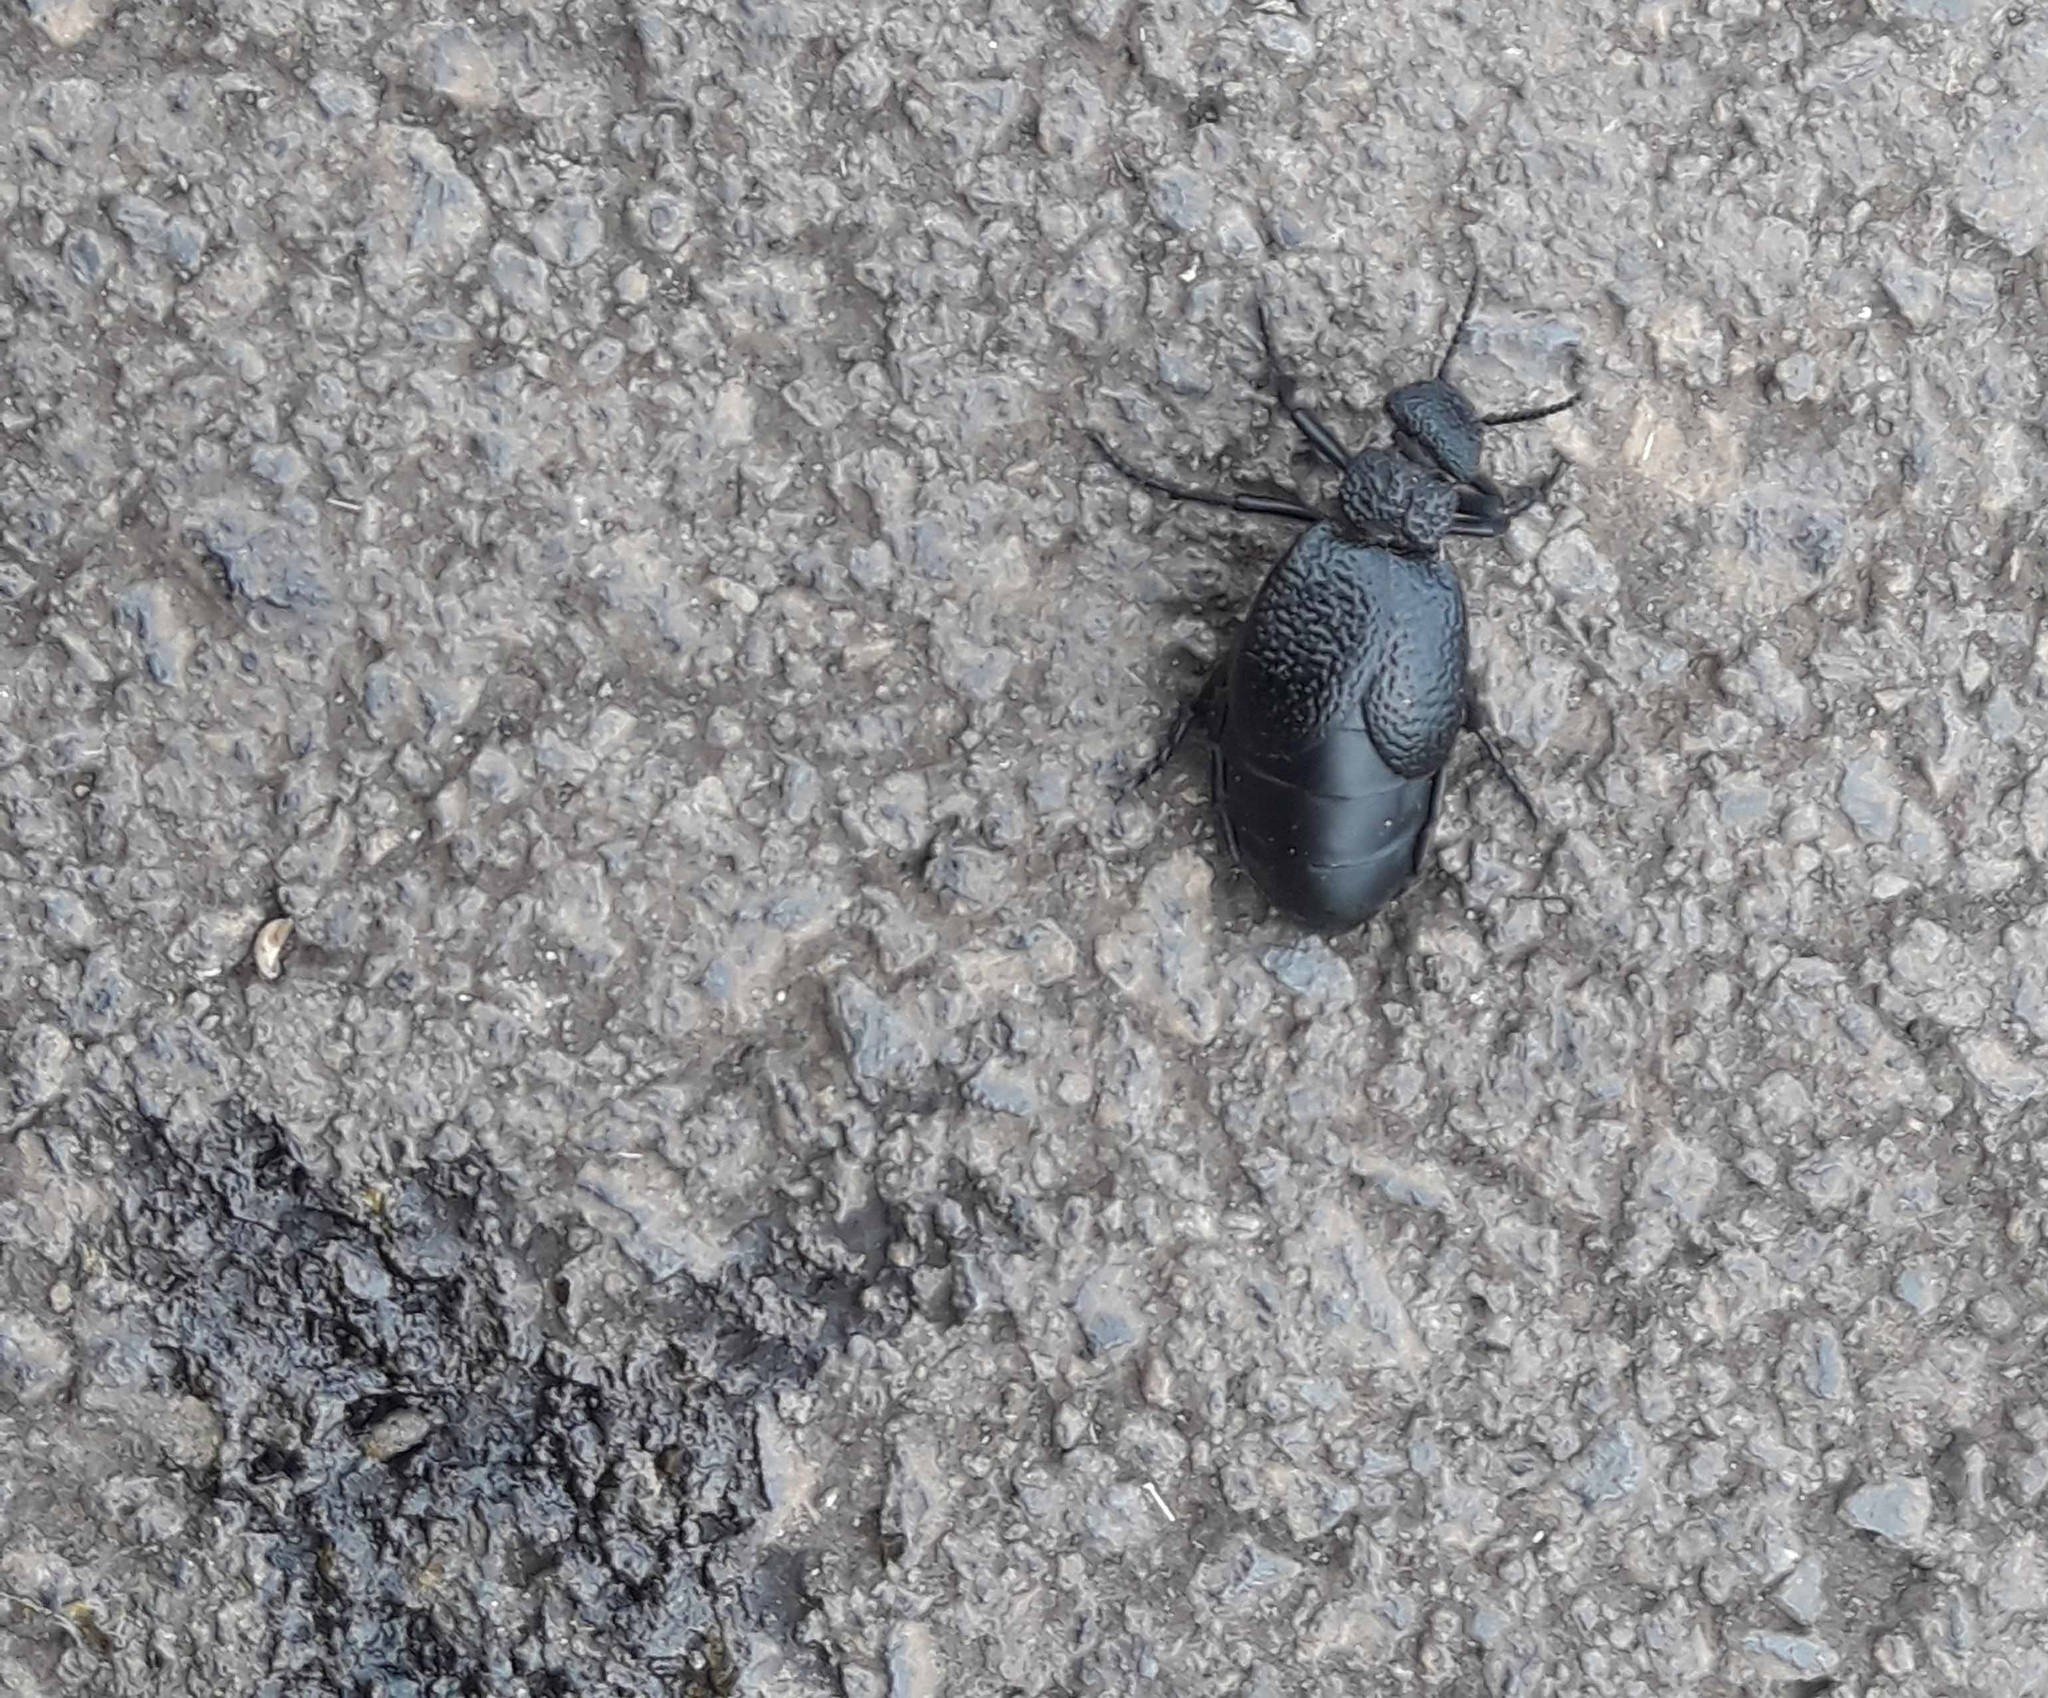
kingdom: Animalia
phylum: Arthropoda
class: Insecta
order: Coleoptera
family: Meloidae
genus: Meloe
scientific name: Meloe tuccius
